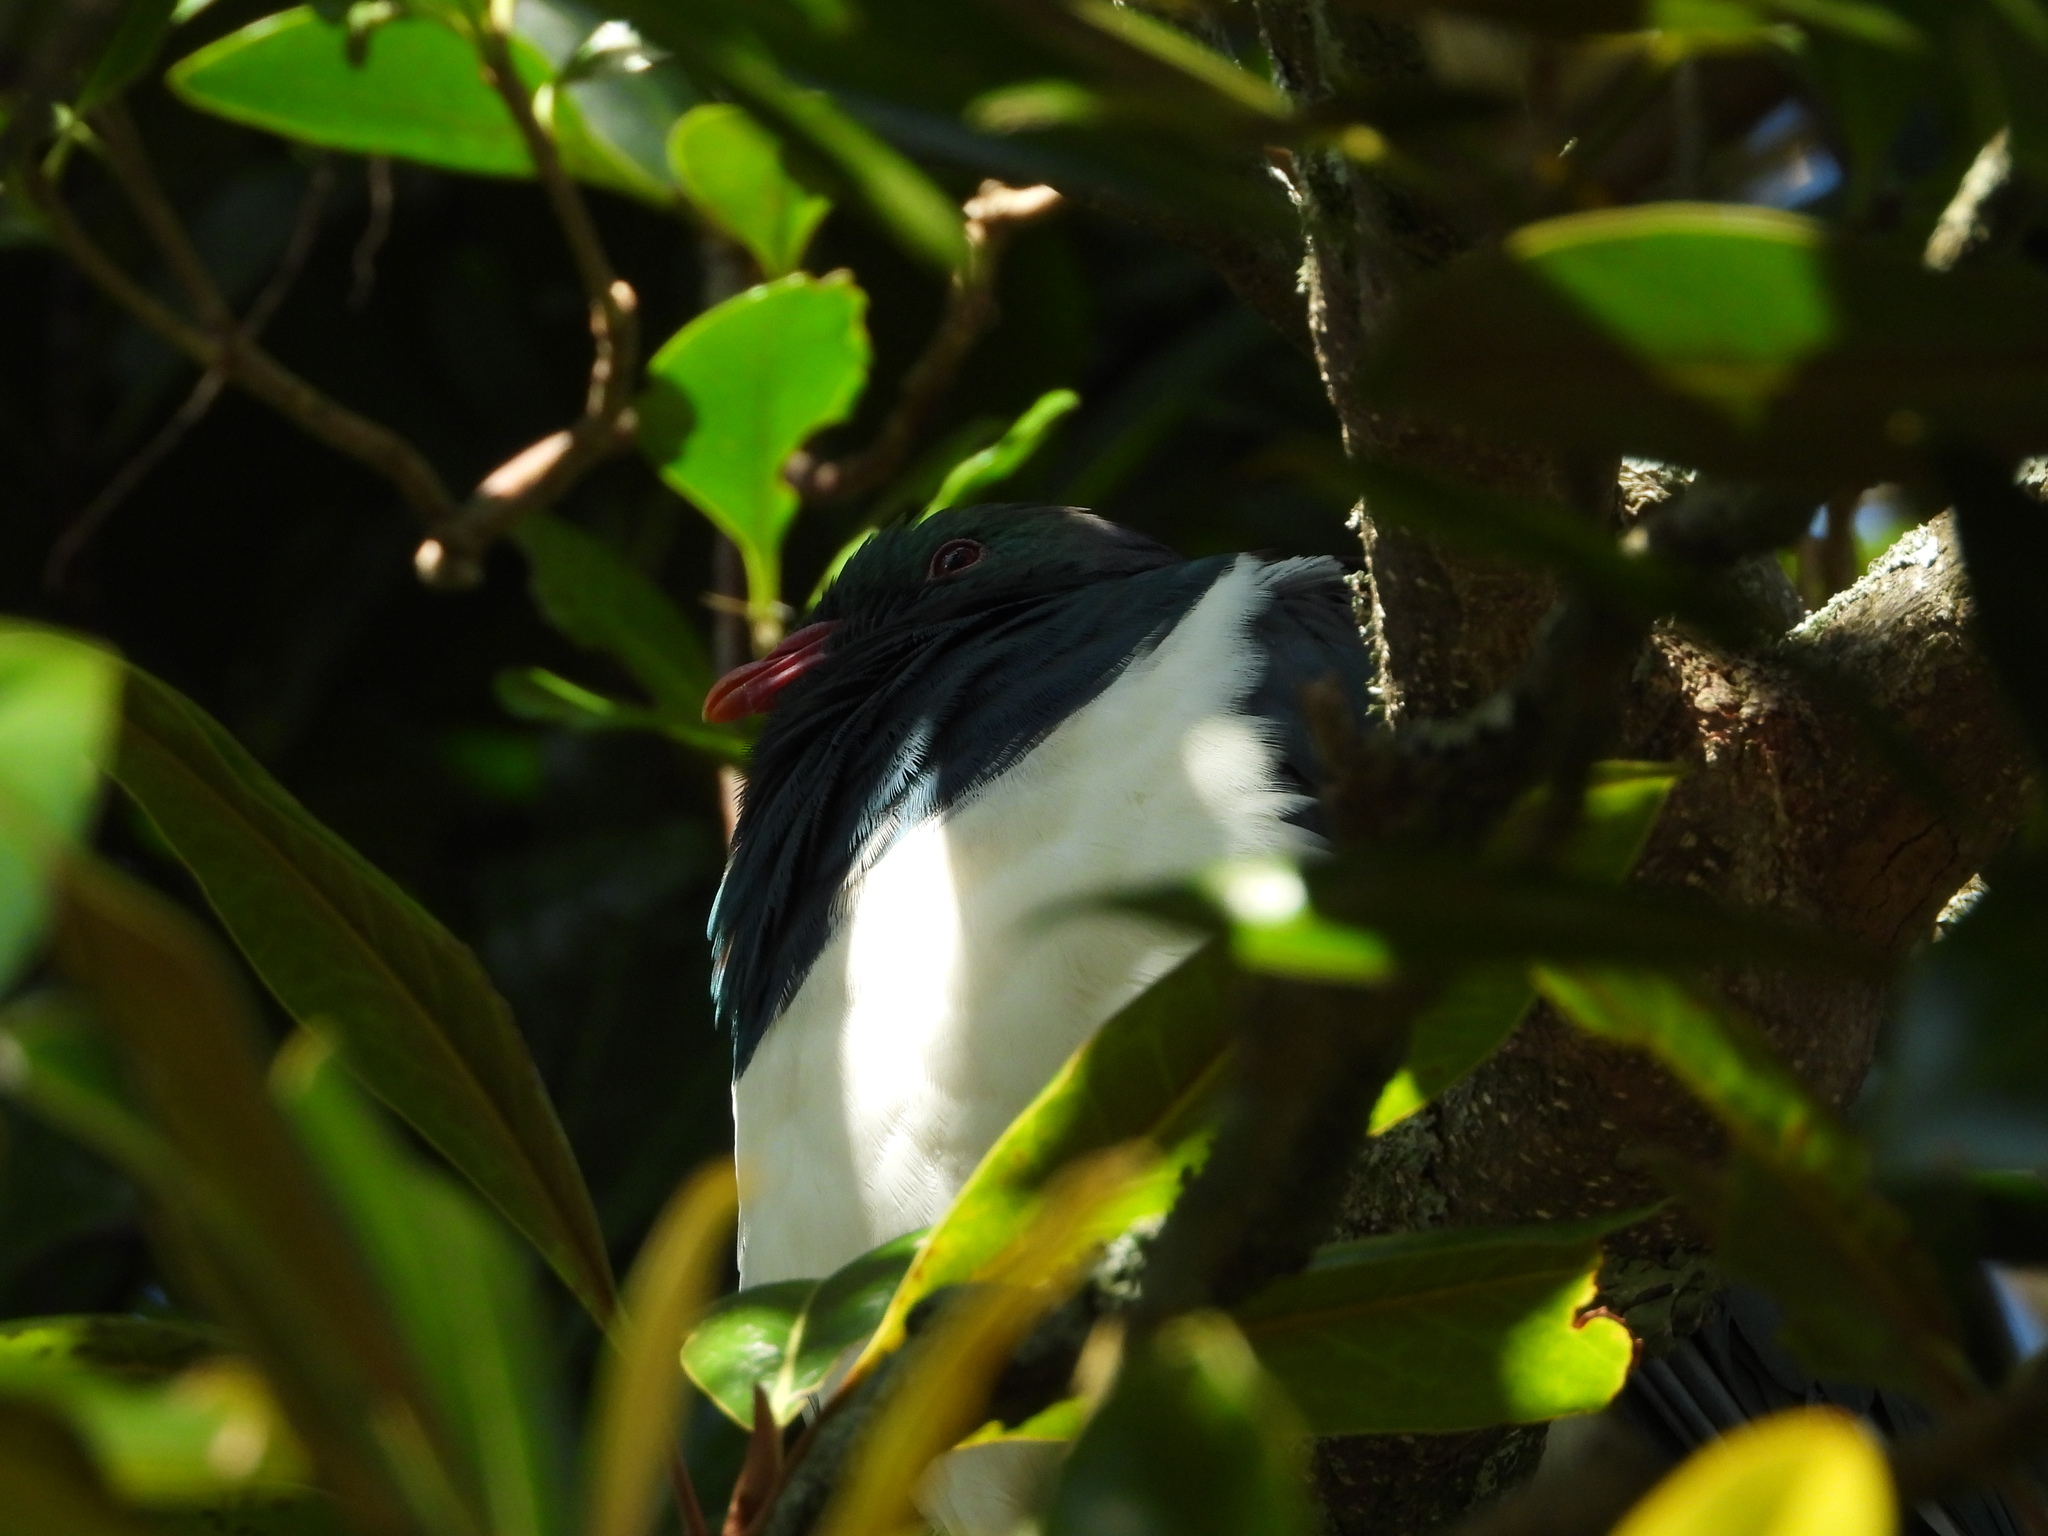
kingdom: Animalia
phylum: Chordata
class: Aves
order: Columbiformes
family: Columbidae
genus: Hemiphaga
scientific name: Hemiphaga novaeseelandiae
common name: New zealand pigeon
